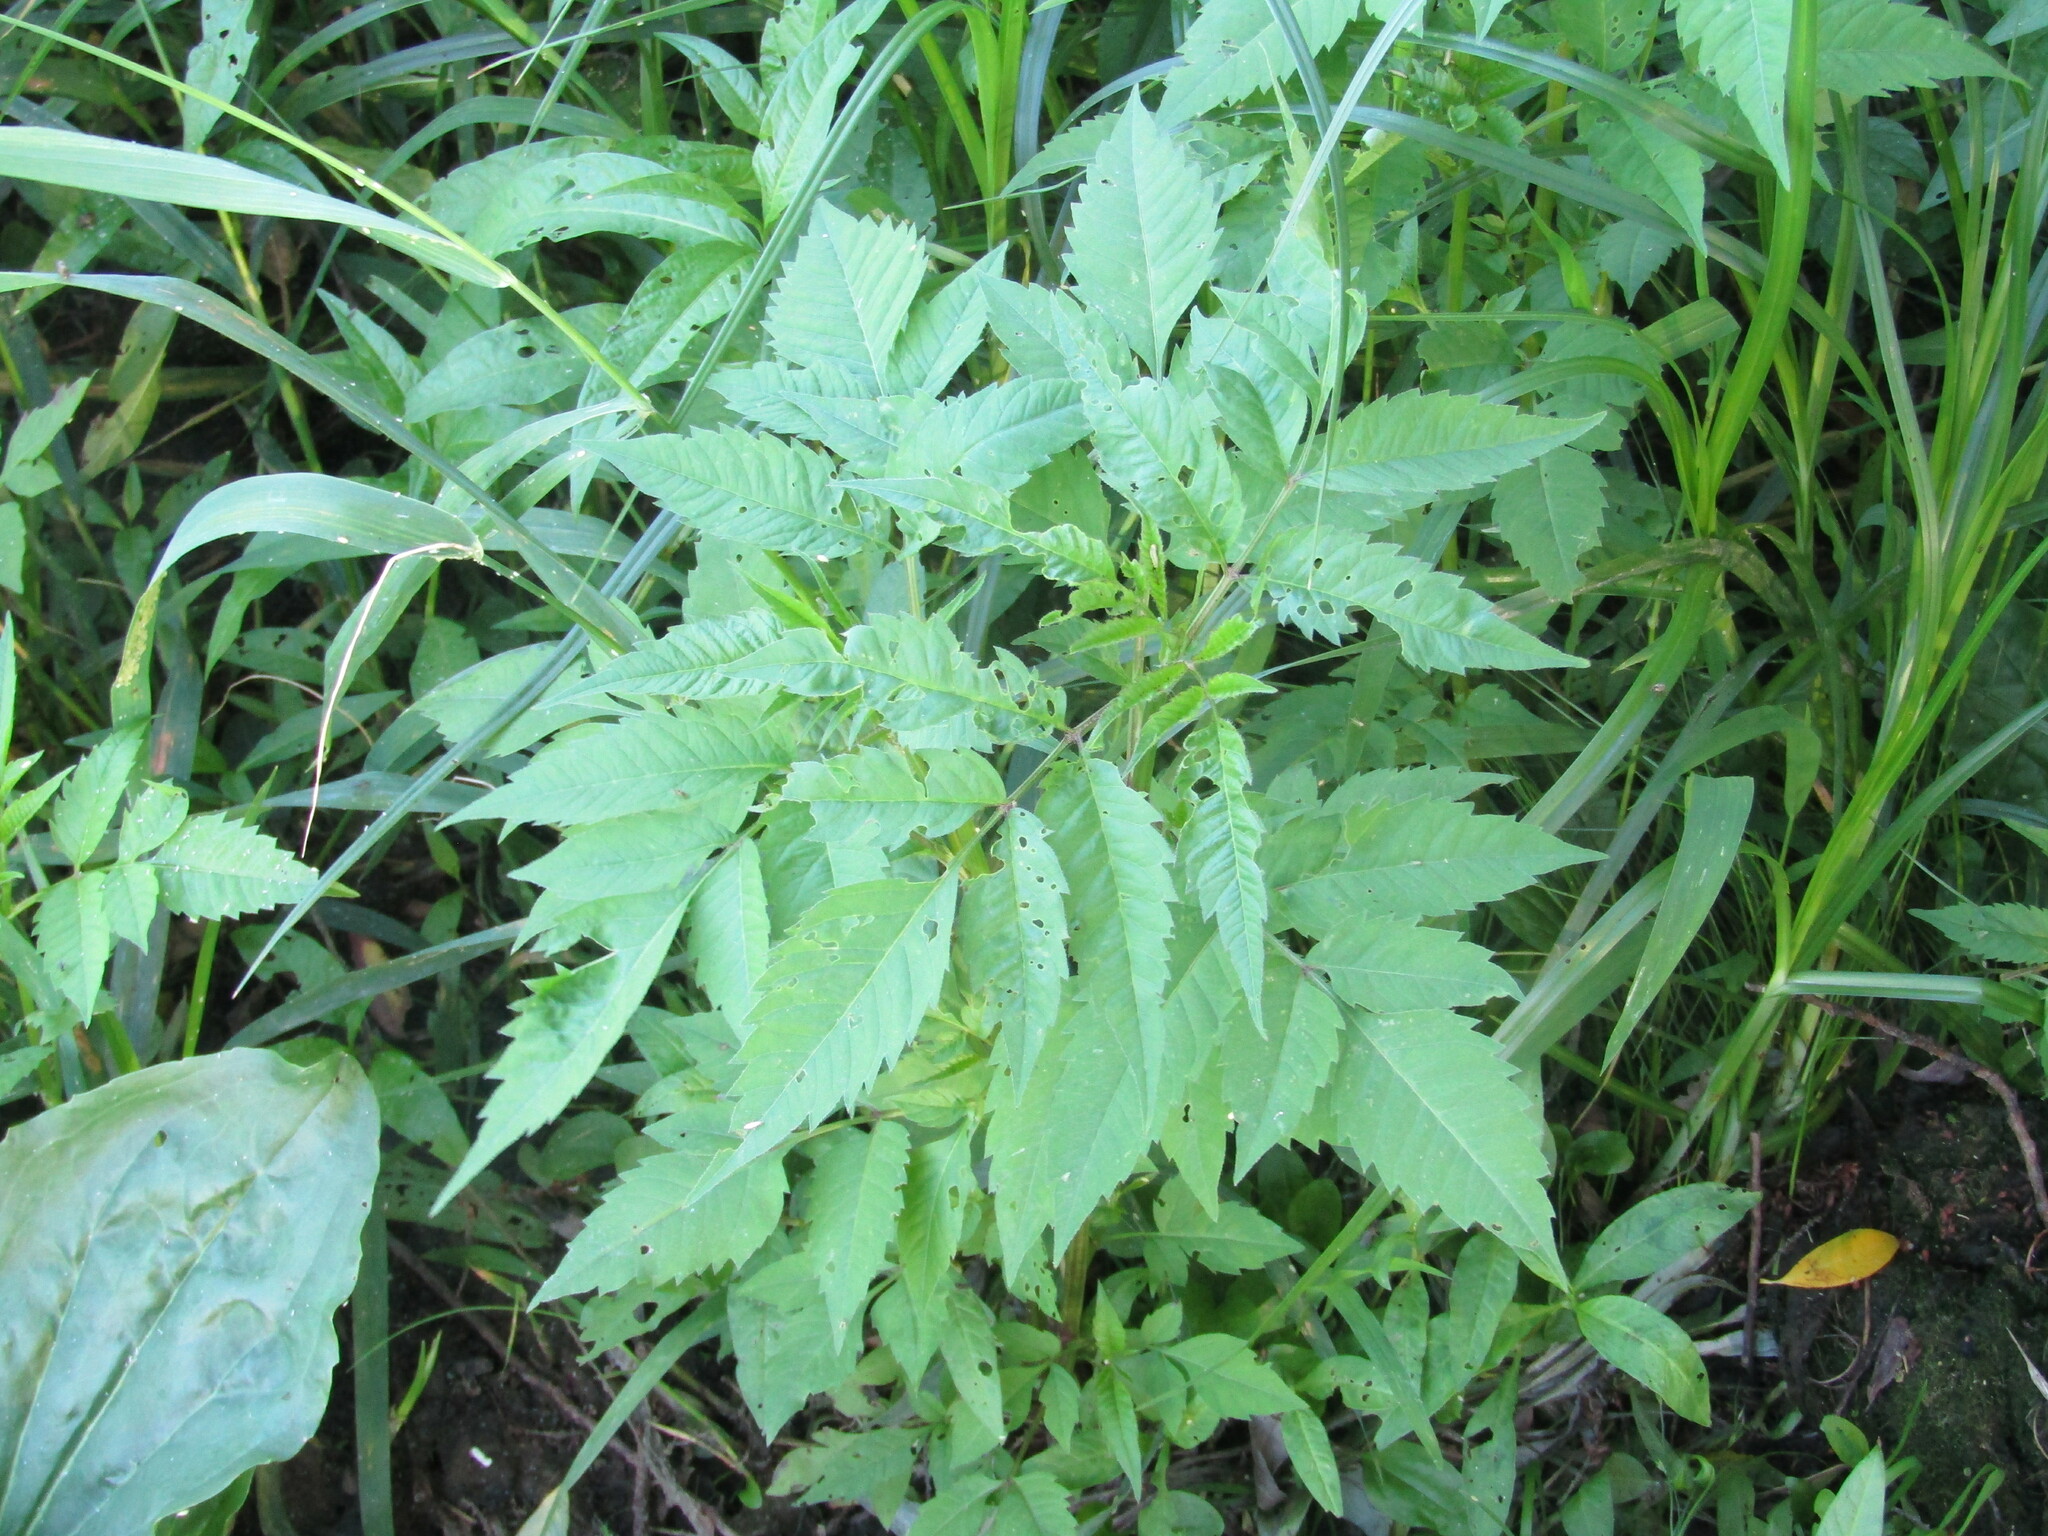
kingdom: Plantae
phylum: Tracheophyta
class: Magnoliopsida
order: Asterales
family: Asteraceae
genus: Bidens
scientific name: Bidens frondosa
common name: Beggarticks
